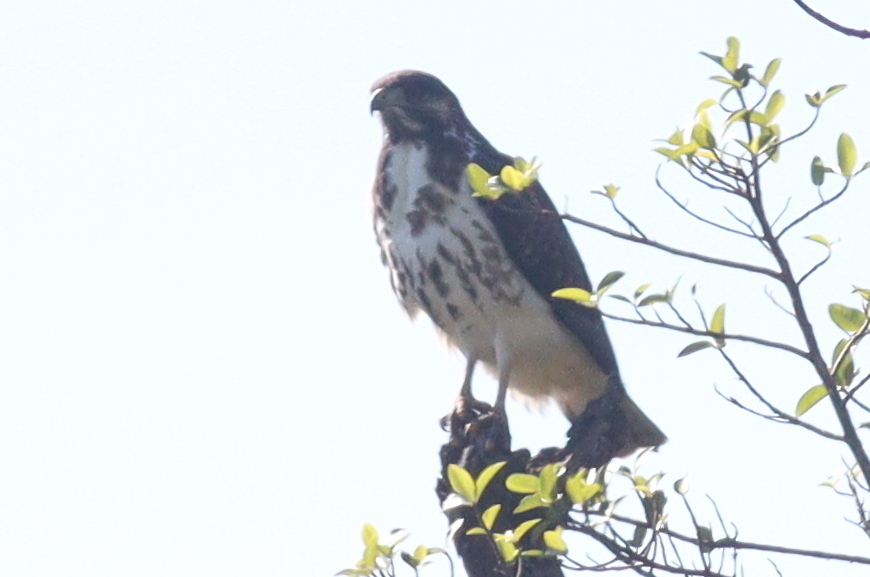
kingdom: Animalia
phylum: Chordata
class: Aves
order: Accipitriformes
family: Accipitridae
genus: Buteo
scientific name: Buteo augur
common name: Augur buzzard
